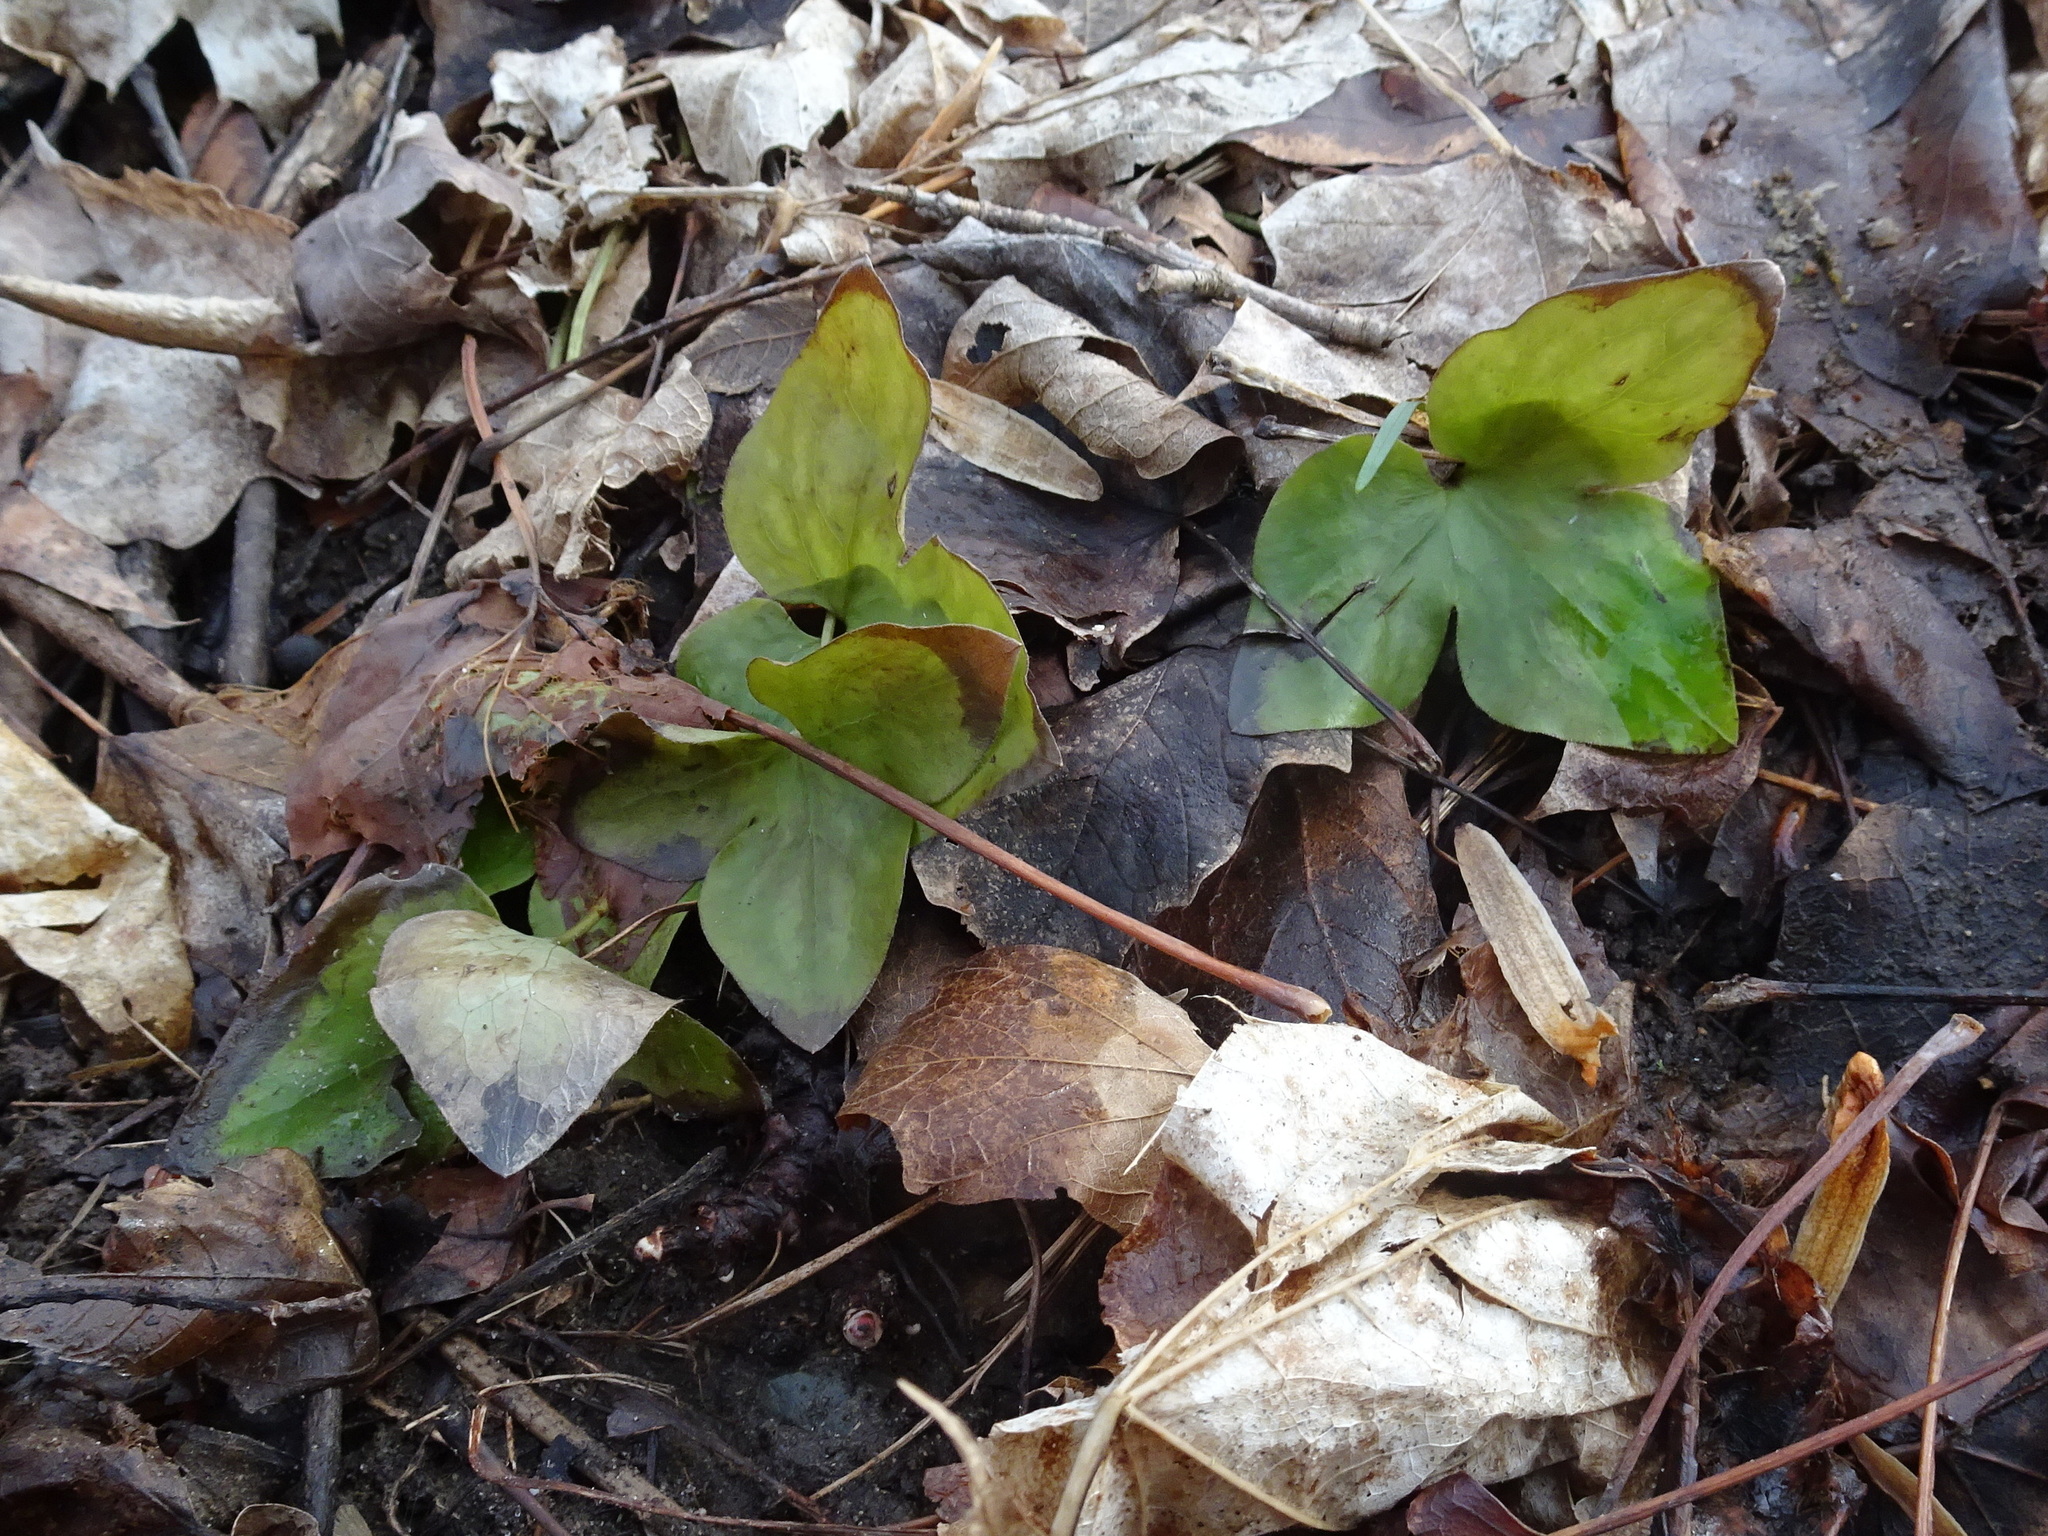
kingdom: Plantae
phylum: Tracheophyta
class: Magnoliopsida
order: Ranunculales
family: Ranunculaceae
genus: Hepatica
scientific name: Hepatica acutiloba
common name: Sharp-lobed hepatica
